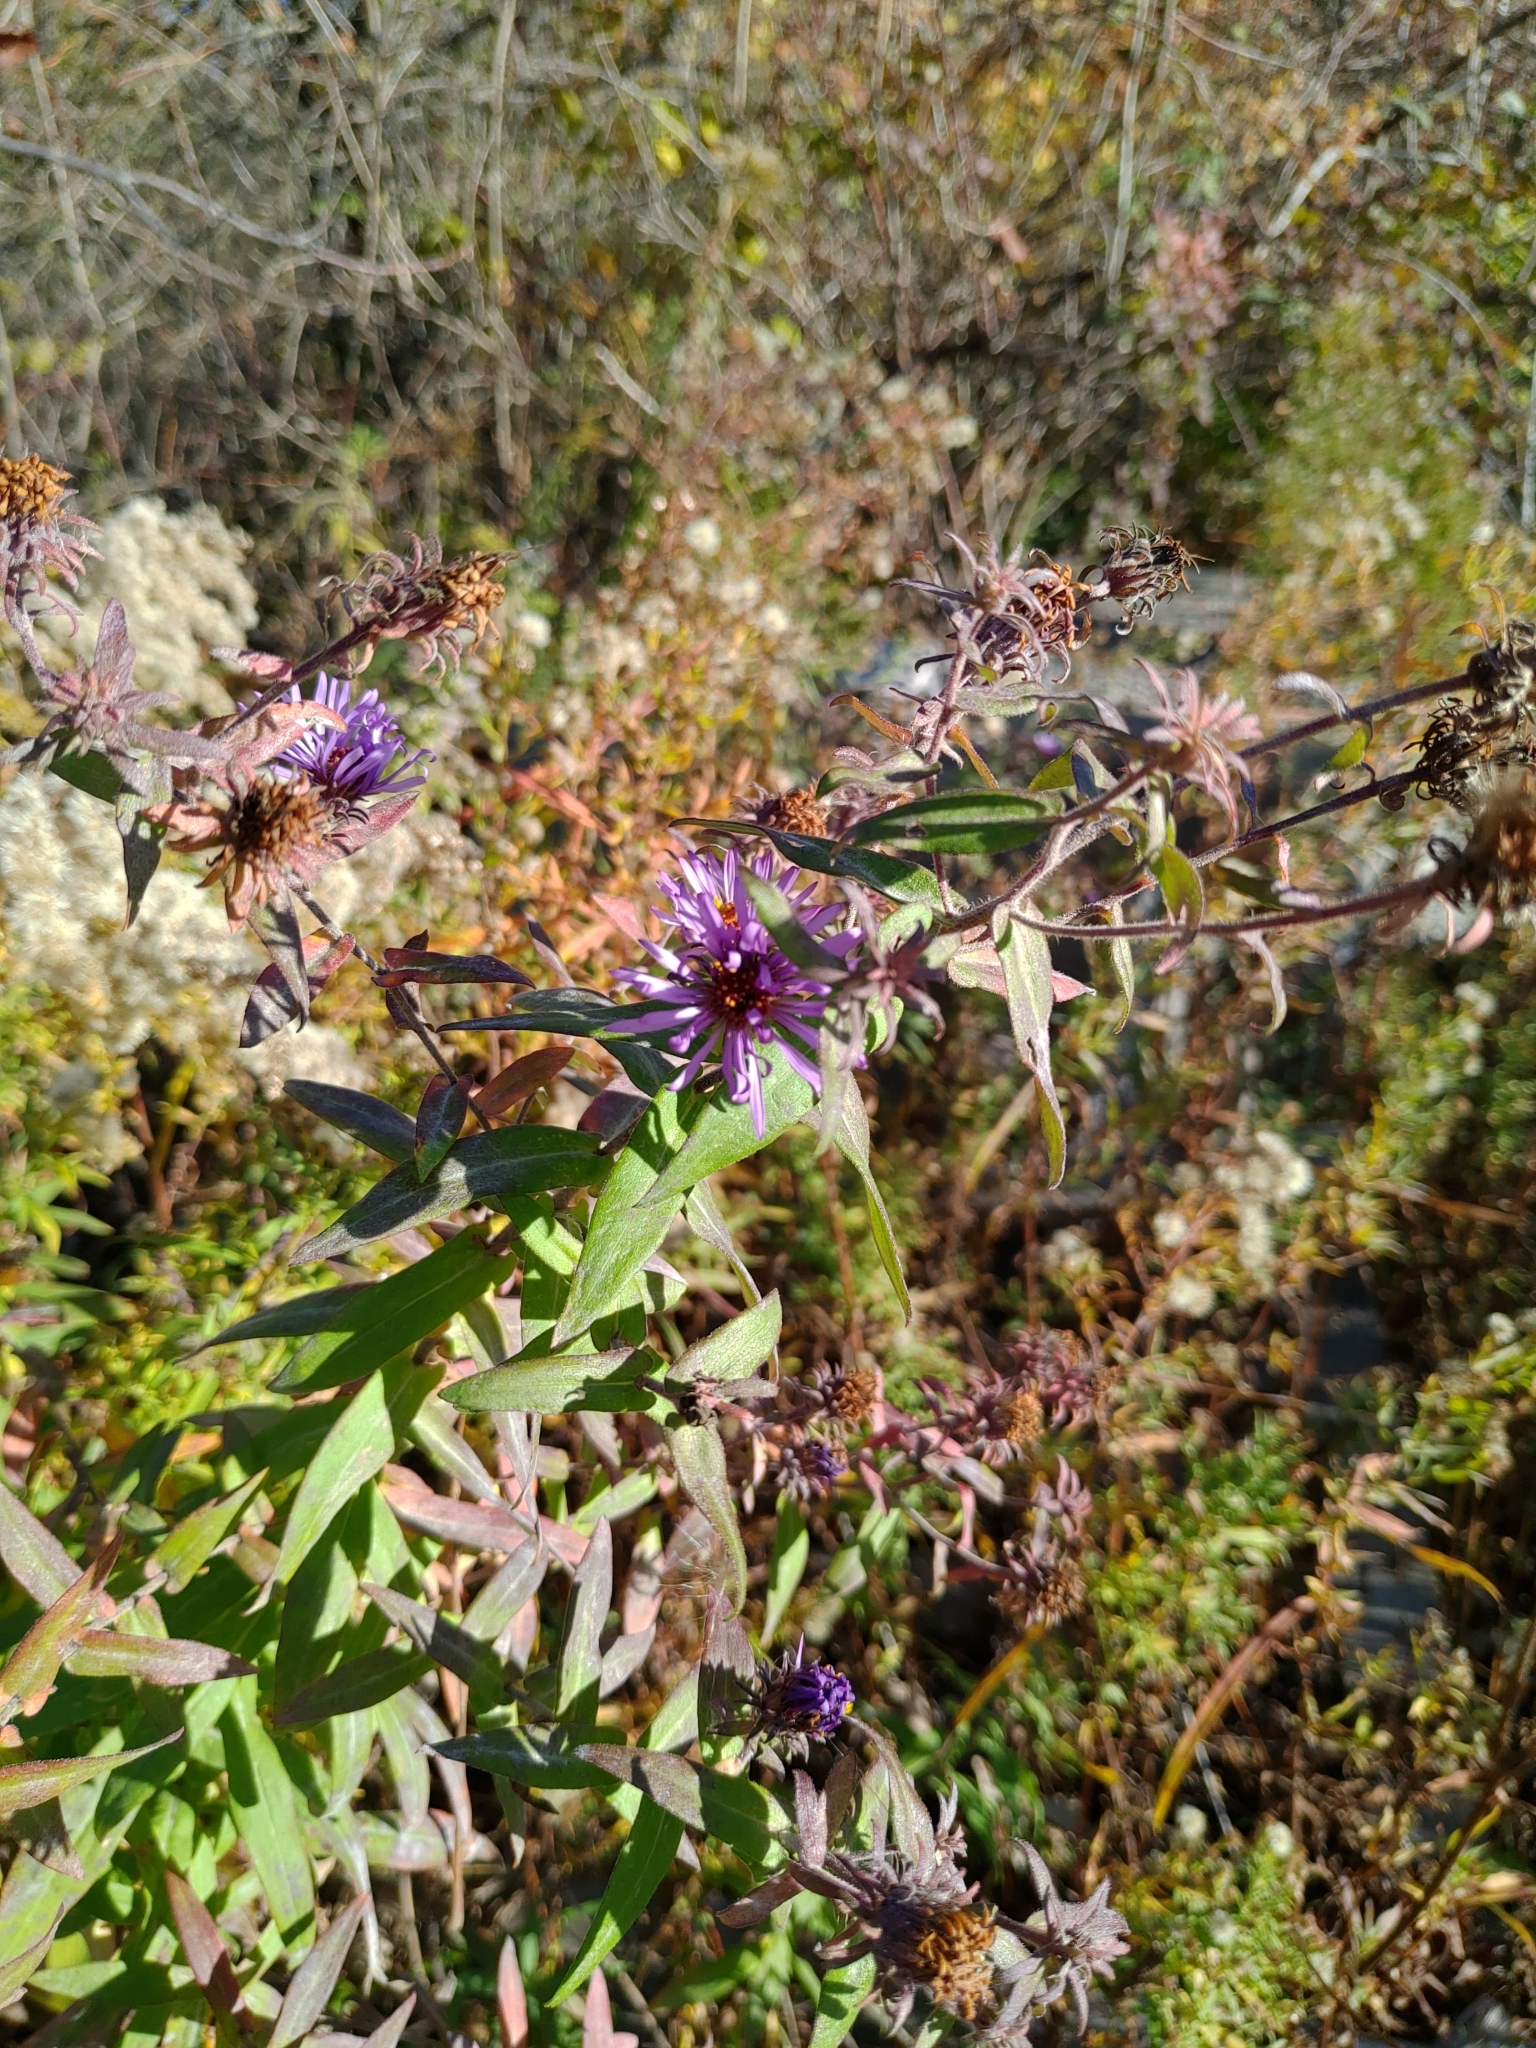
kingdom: Plantae
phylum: Tracheophyta
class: Magnoliopsida
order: Asterales
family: Asteraceae
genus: Symphyotrichum
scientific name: Symphyotrichum novae-angliae
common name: Michaelmas daisy
